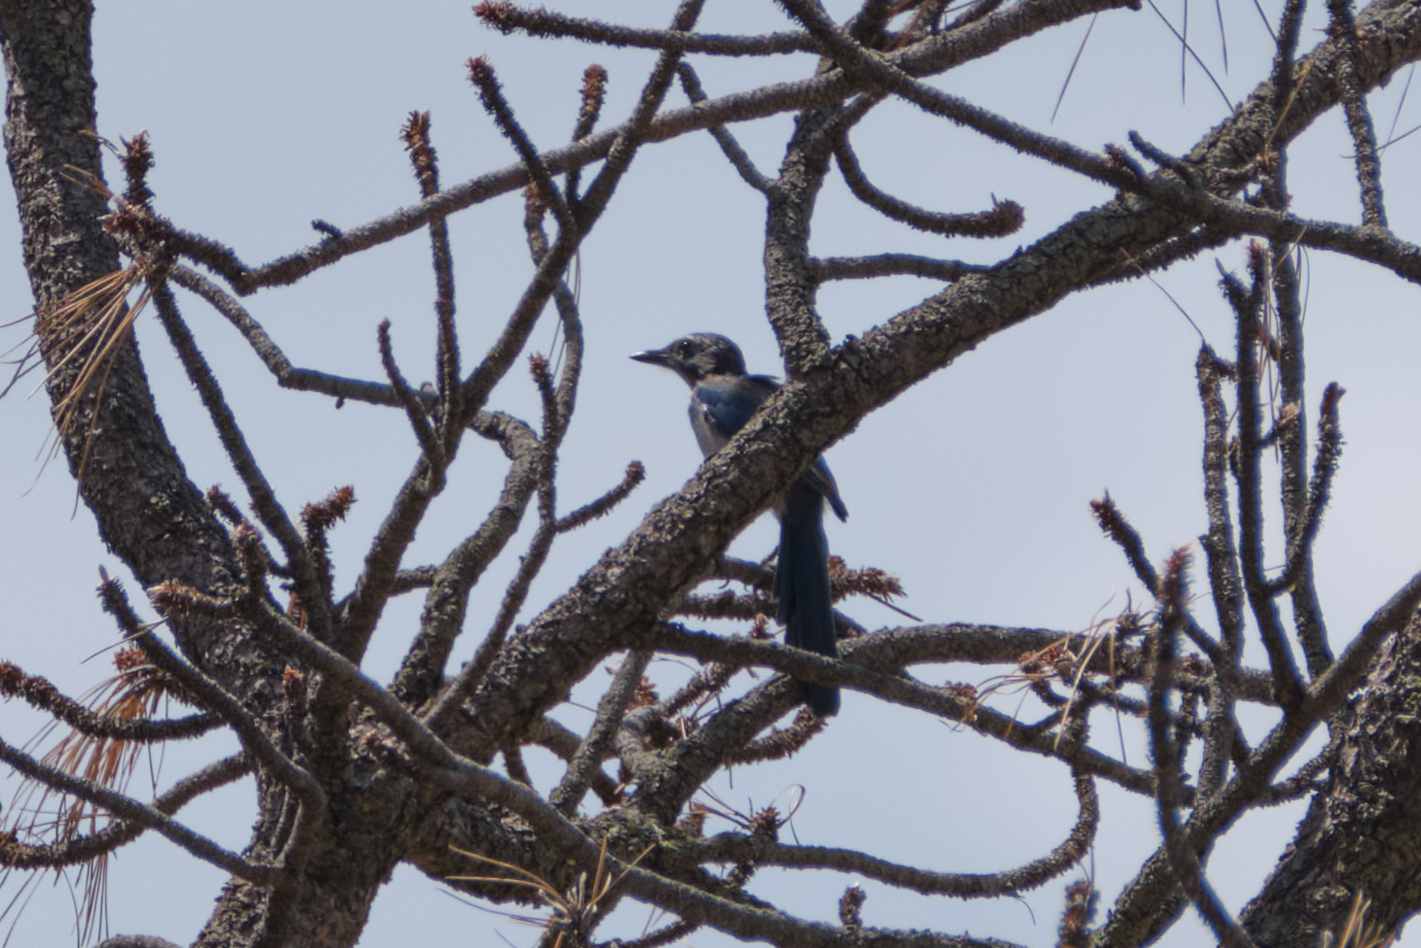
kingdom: Animalia
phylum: Chordata
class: Aves
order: Passeriformes
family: Corvidae
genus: Aphelocoma
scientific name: Aphelocoma californica
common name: California scrub-jay
